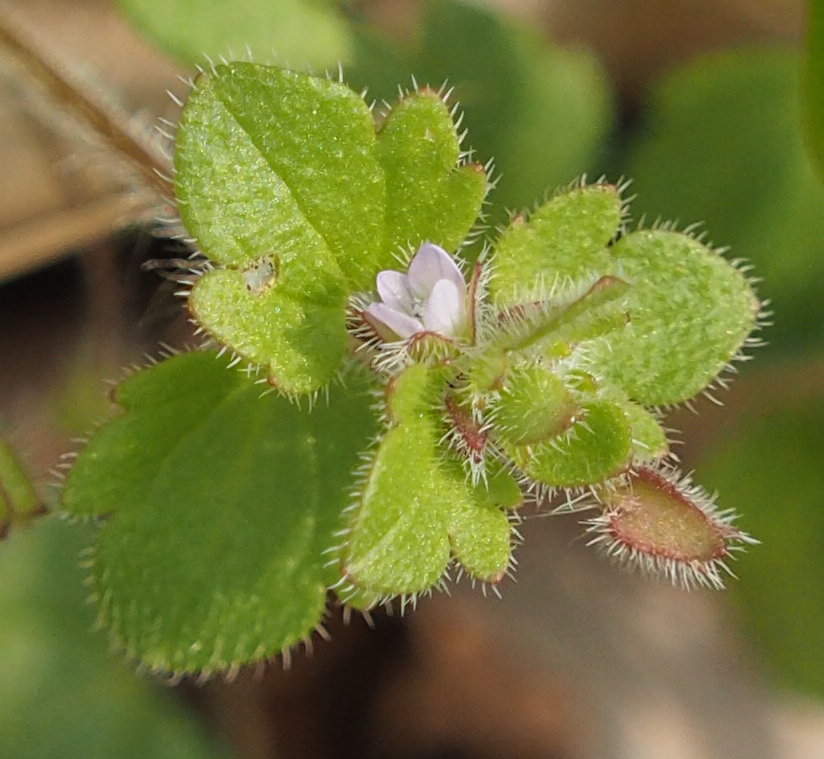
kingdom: Plantae
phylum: Tracheophyta
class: Magnoliopsida
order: Lamiales
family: Plantaginaceae
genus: Veronica
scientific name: Veronica sublobata
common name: False ivy-leaved speedwell
